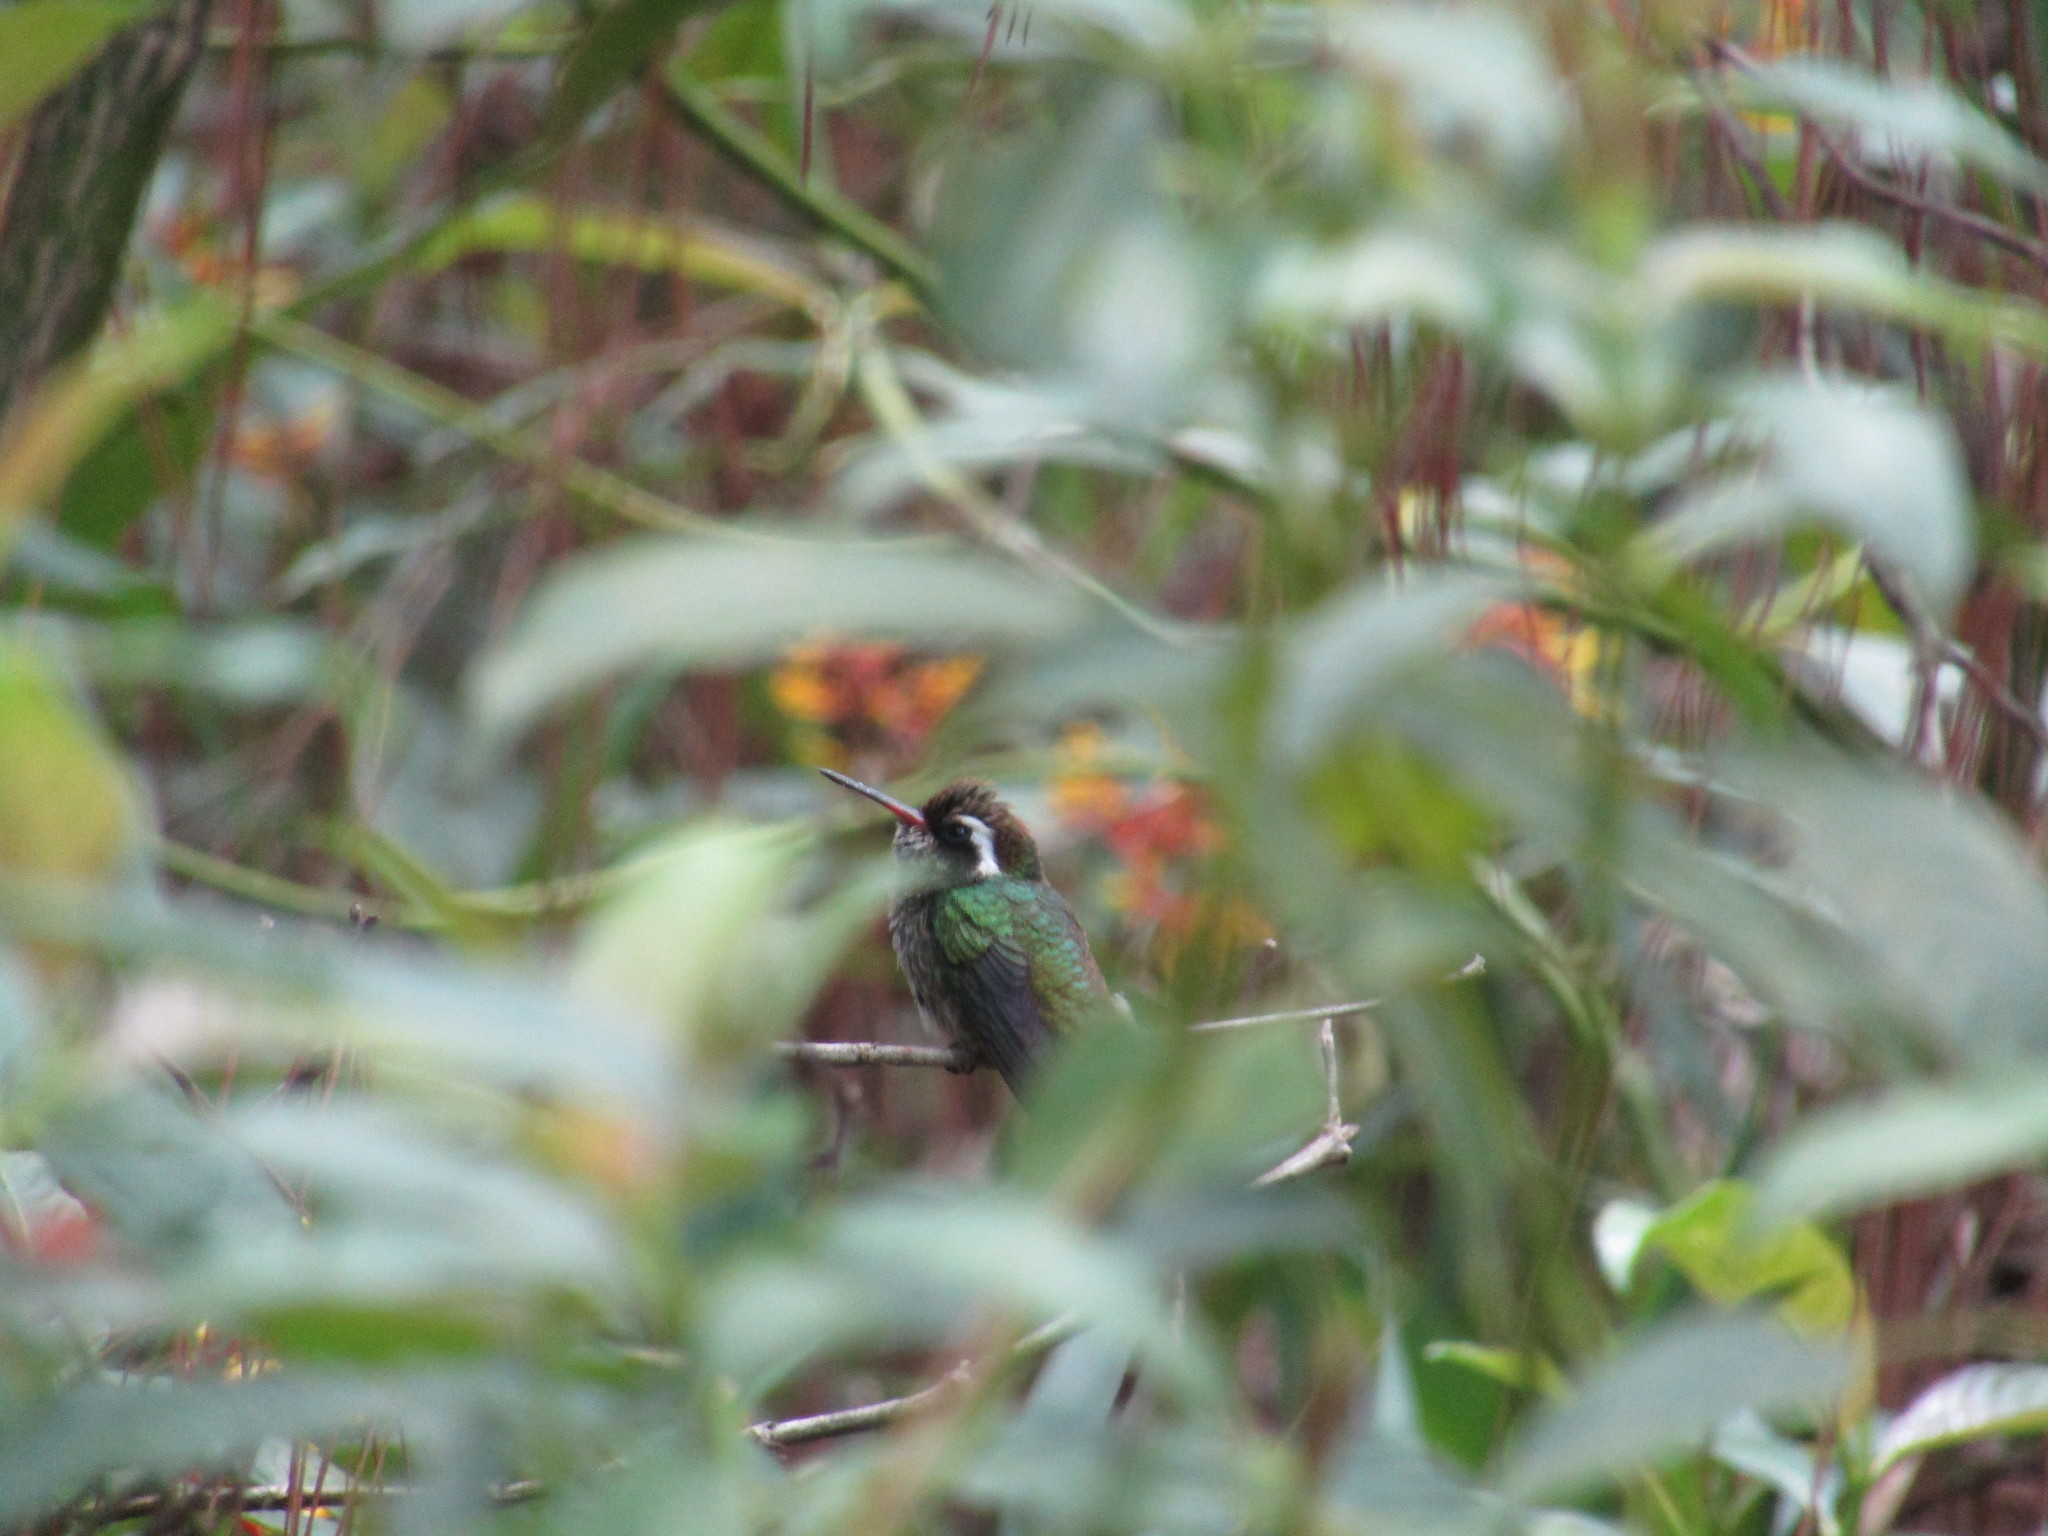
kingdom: Animalia
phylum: Chordata
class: Aves
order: Apodiformes
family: Trochilidae
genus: Basilinna
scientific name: Basilinna leucotis
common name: White-eared hummingbird
